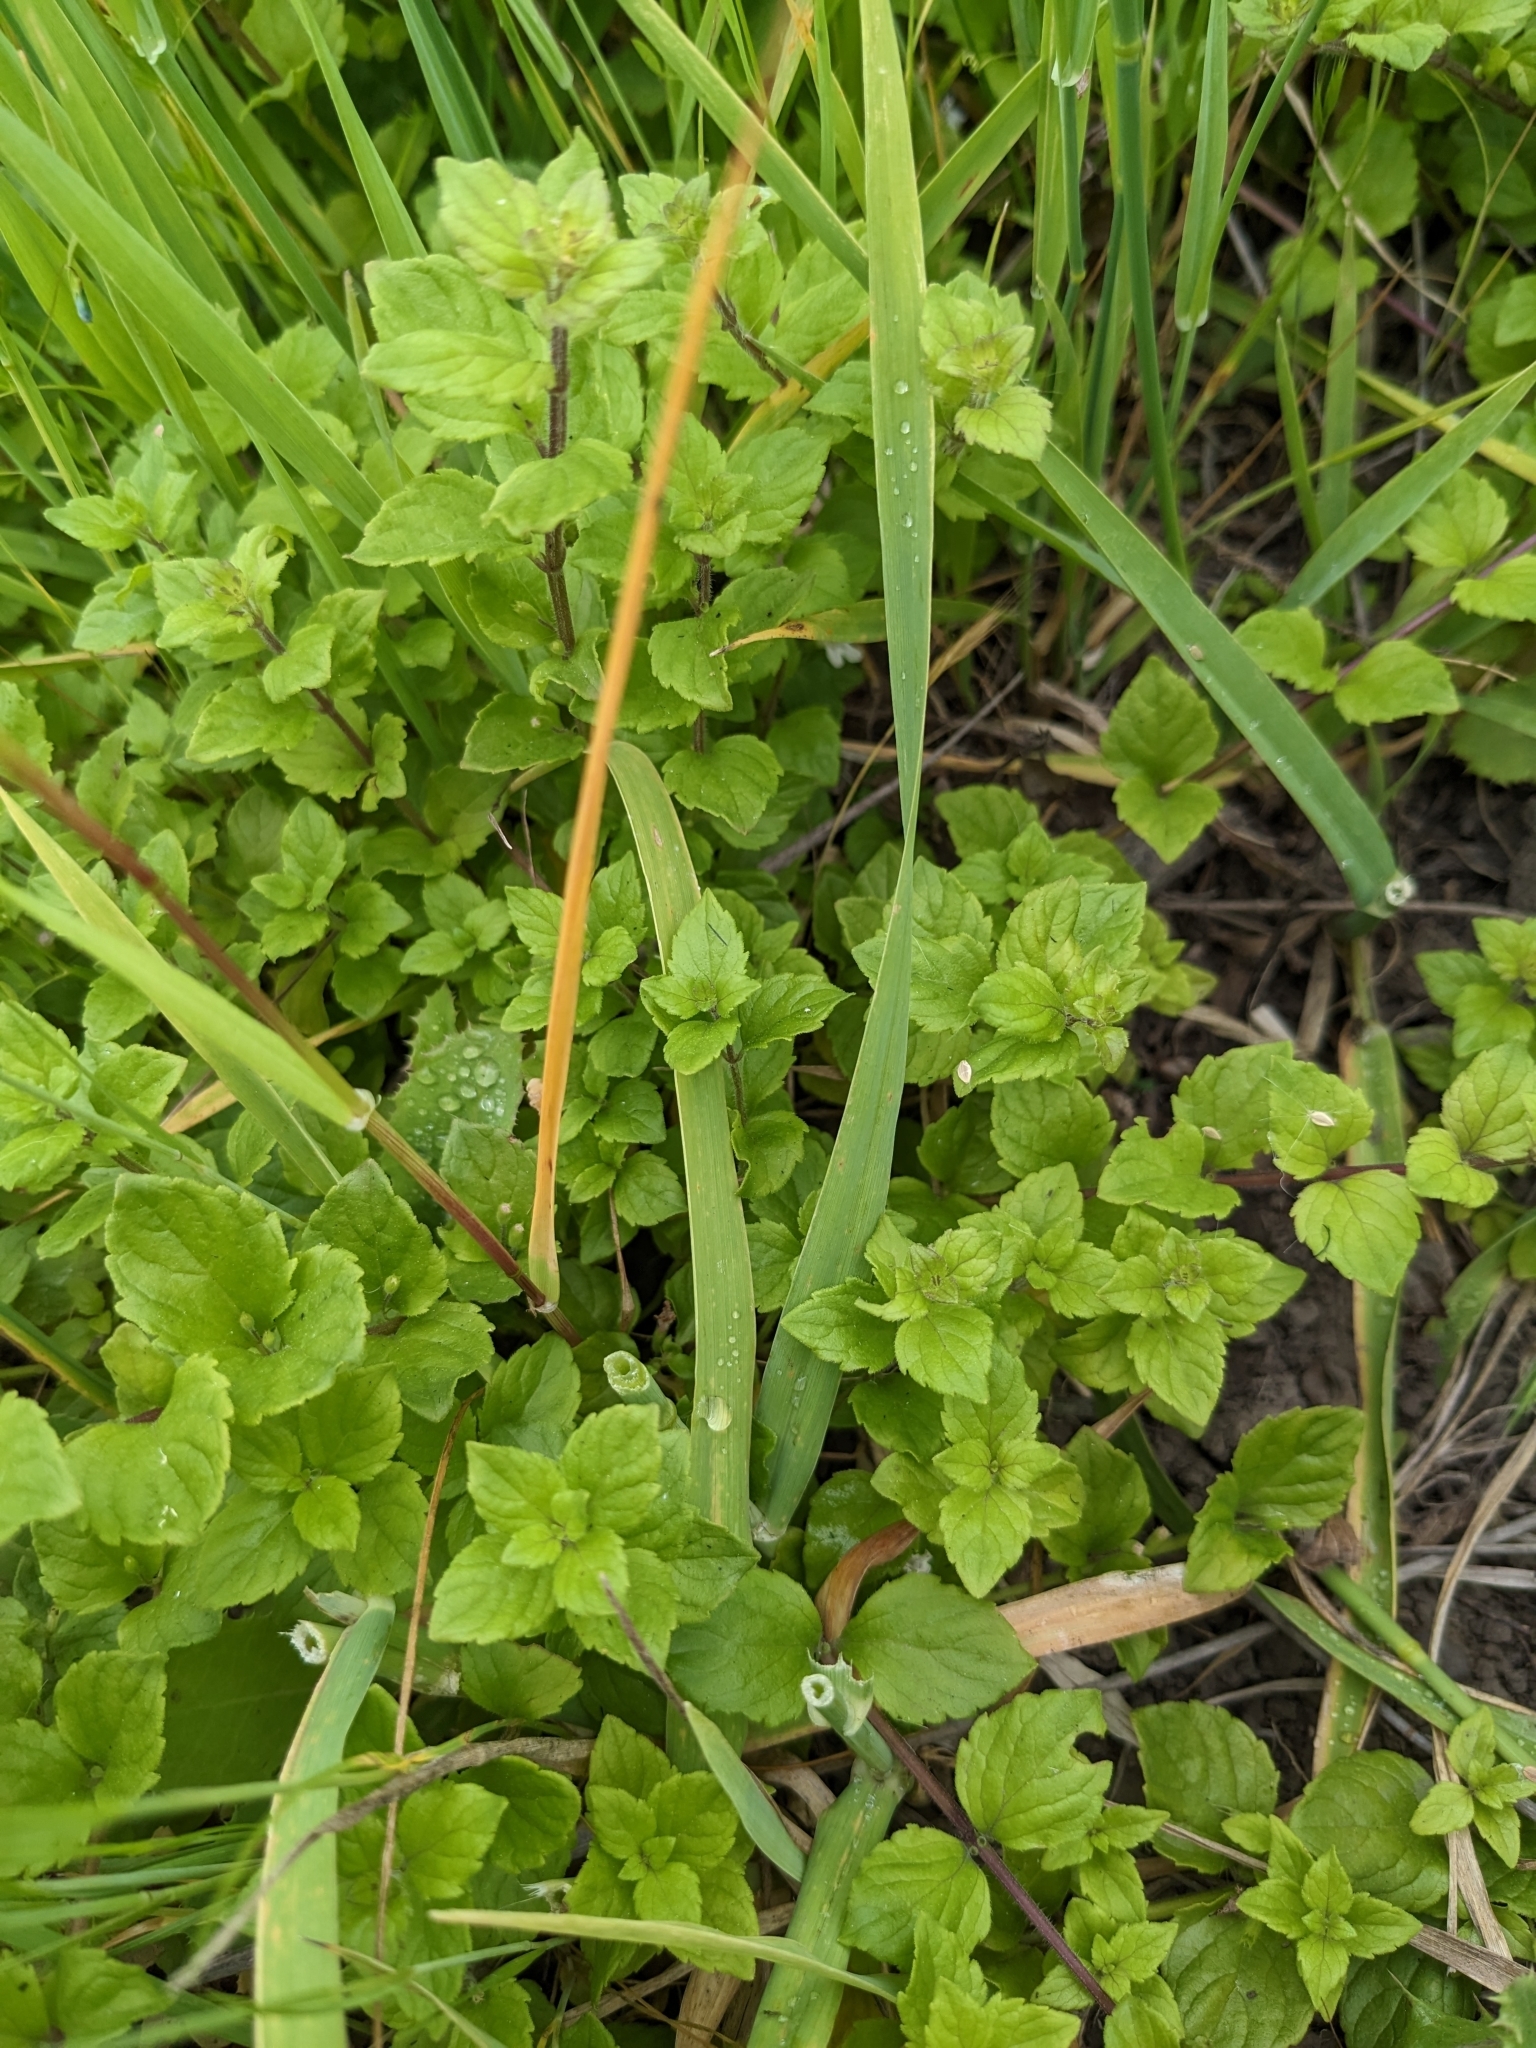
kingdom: Plantae
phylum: Tracheophyta
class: Magnoliopsida
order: Lamiales
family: Lamiaceae
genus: Micromeria
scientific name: Micromeria douglasii
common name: Yerba buena
